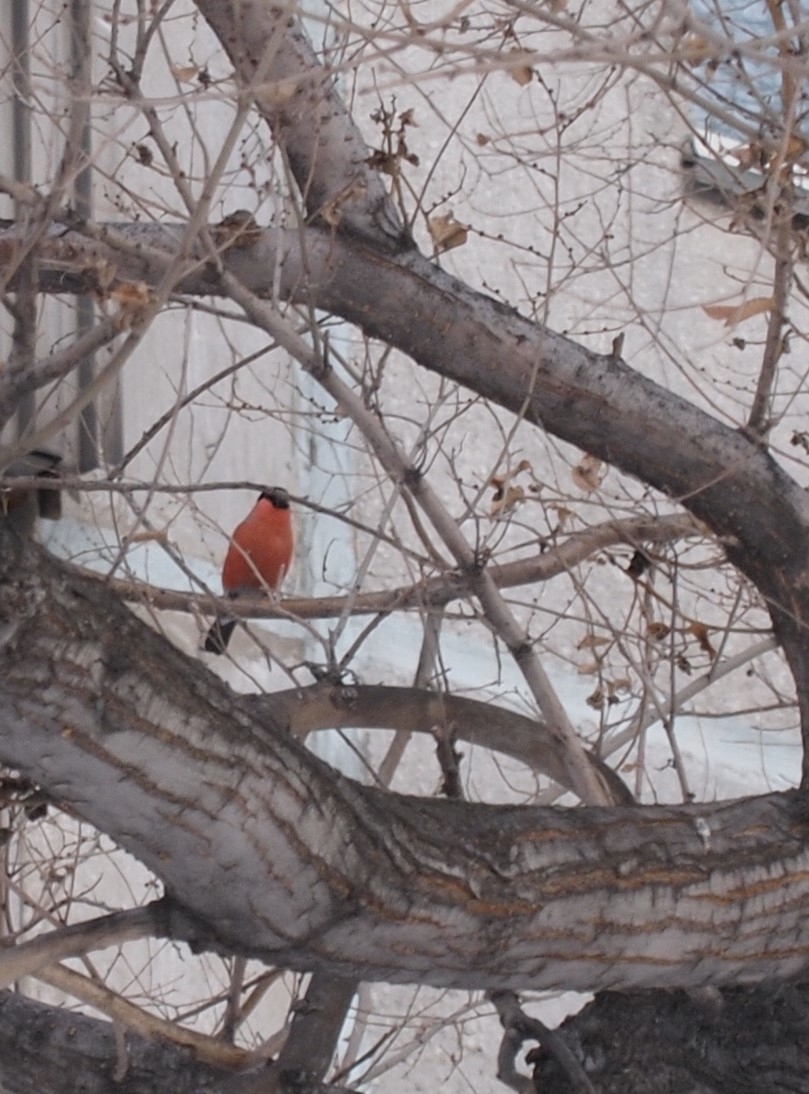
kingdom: Animalia
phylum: Chordata
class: Aves
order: Passeriformes
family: Fringillidae
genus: Pyrrhula
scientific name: Pyrrhula pyrrhula
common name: Eurasian bullfinch
